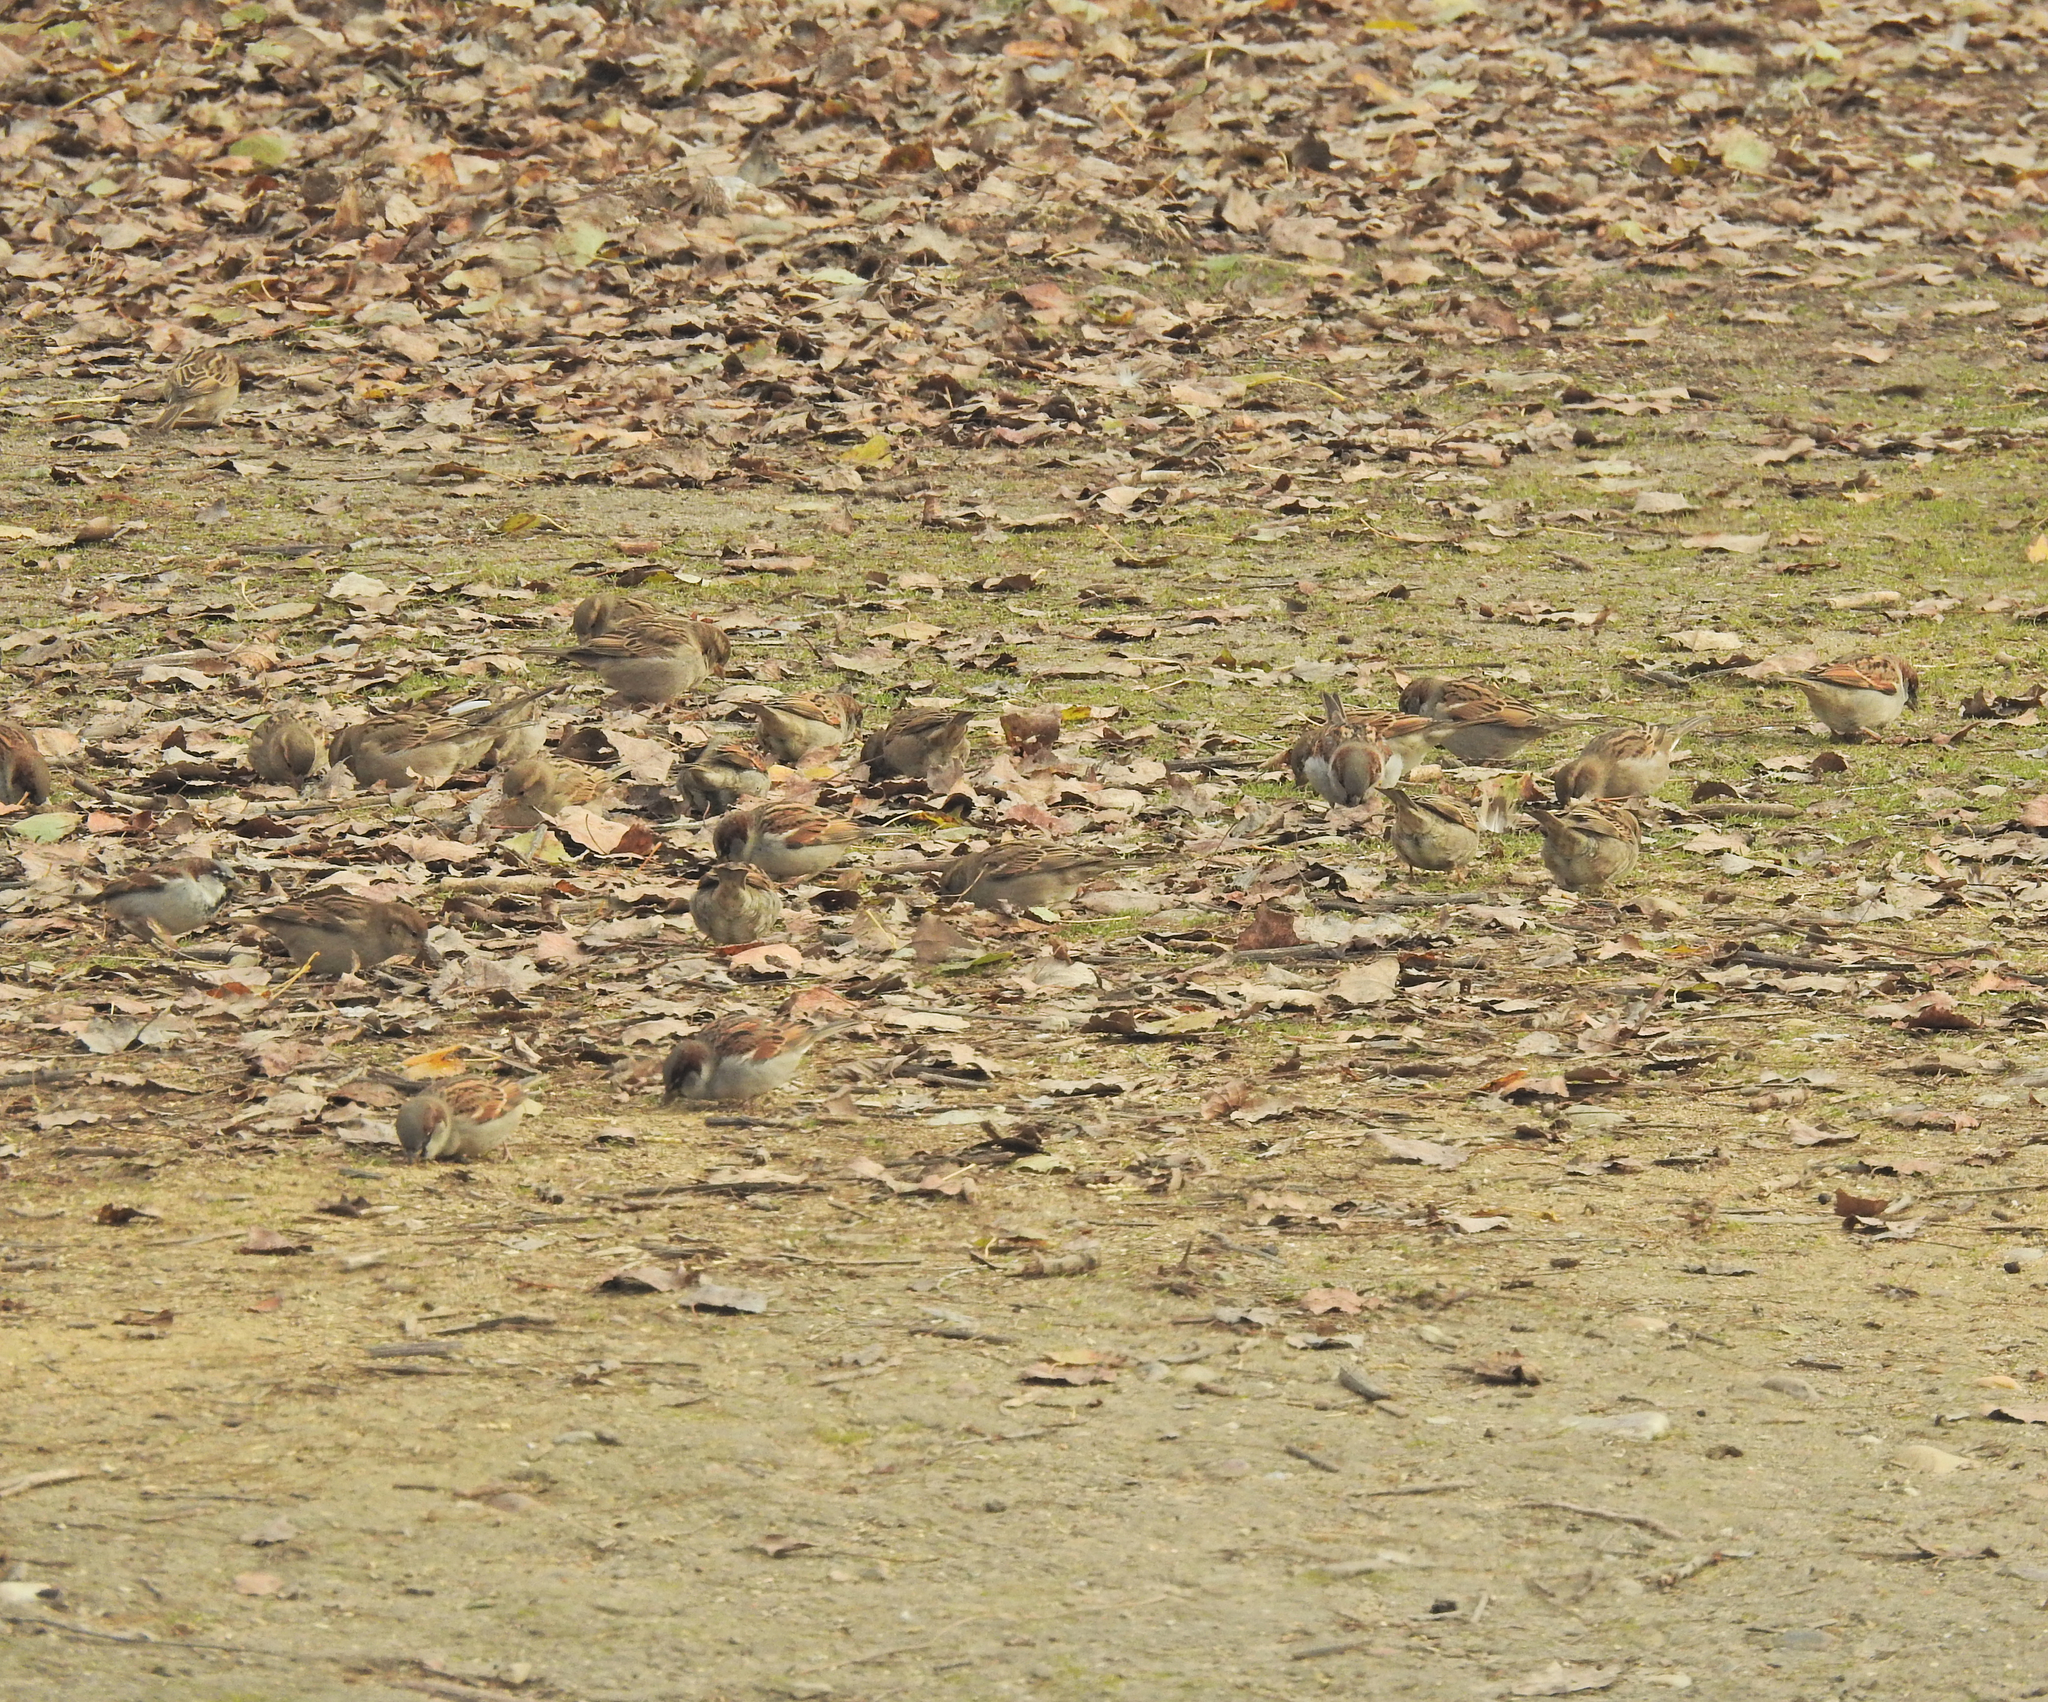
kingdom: Animalia
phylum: Chordata
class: Aves
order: Passeriformes
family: Passeridae
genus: Passer
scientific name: Passer domesticus
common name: House sparrow
